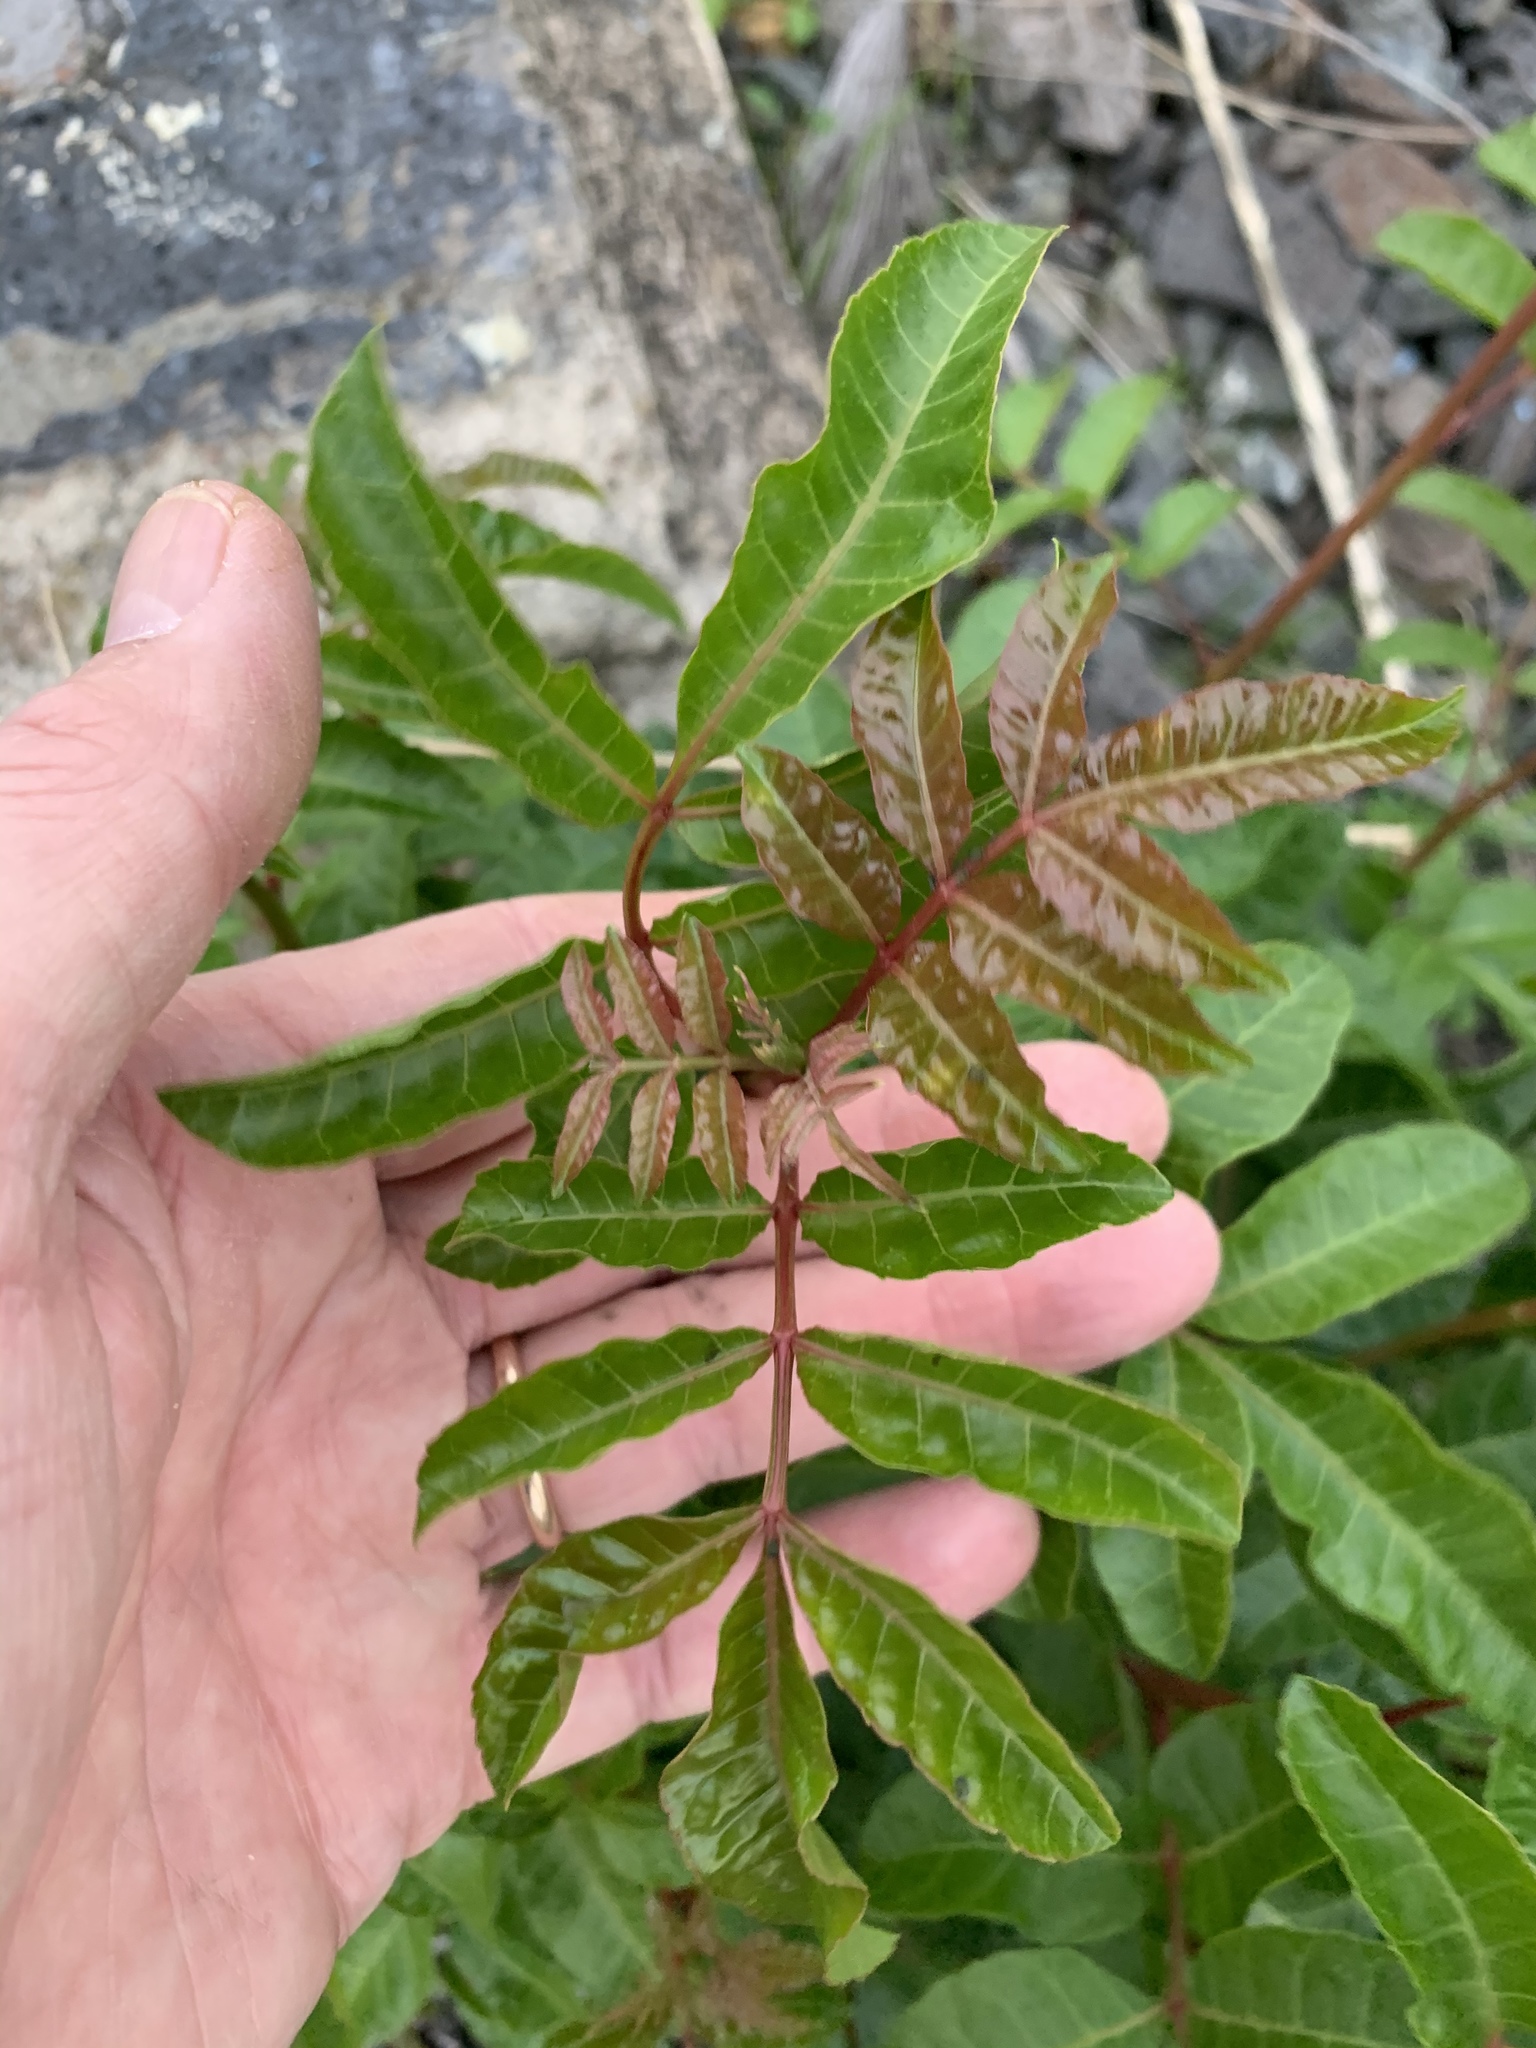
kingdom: Plantae
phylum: Tracheophyta
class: Magnoliopsida
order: Sapindales
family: Anacardiaceae
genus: Schinus
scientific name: Schinus terebinthifolia
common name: Brazilian peppertree
